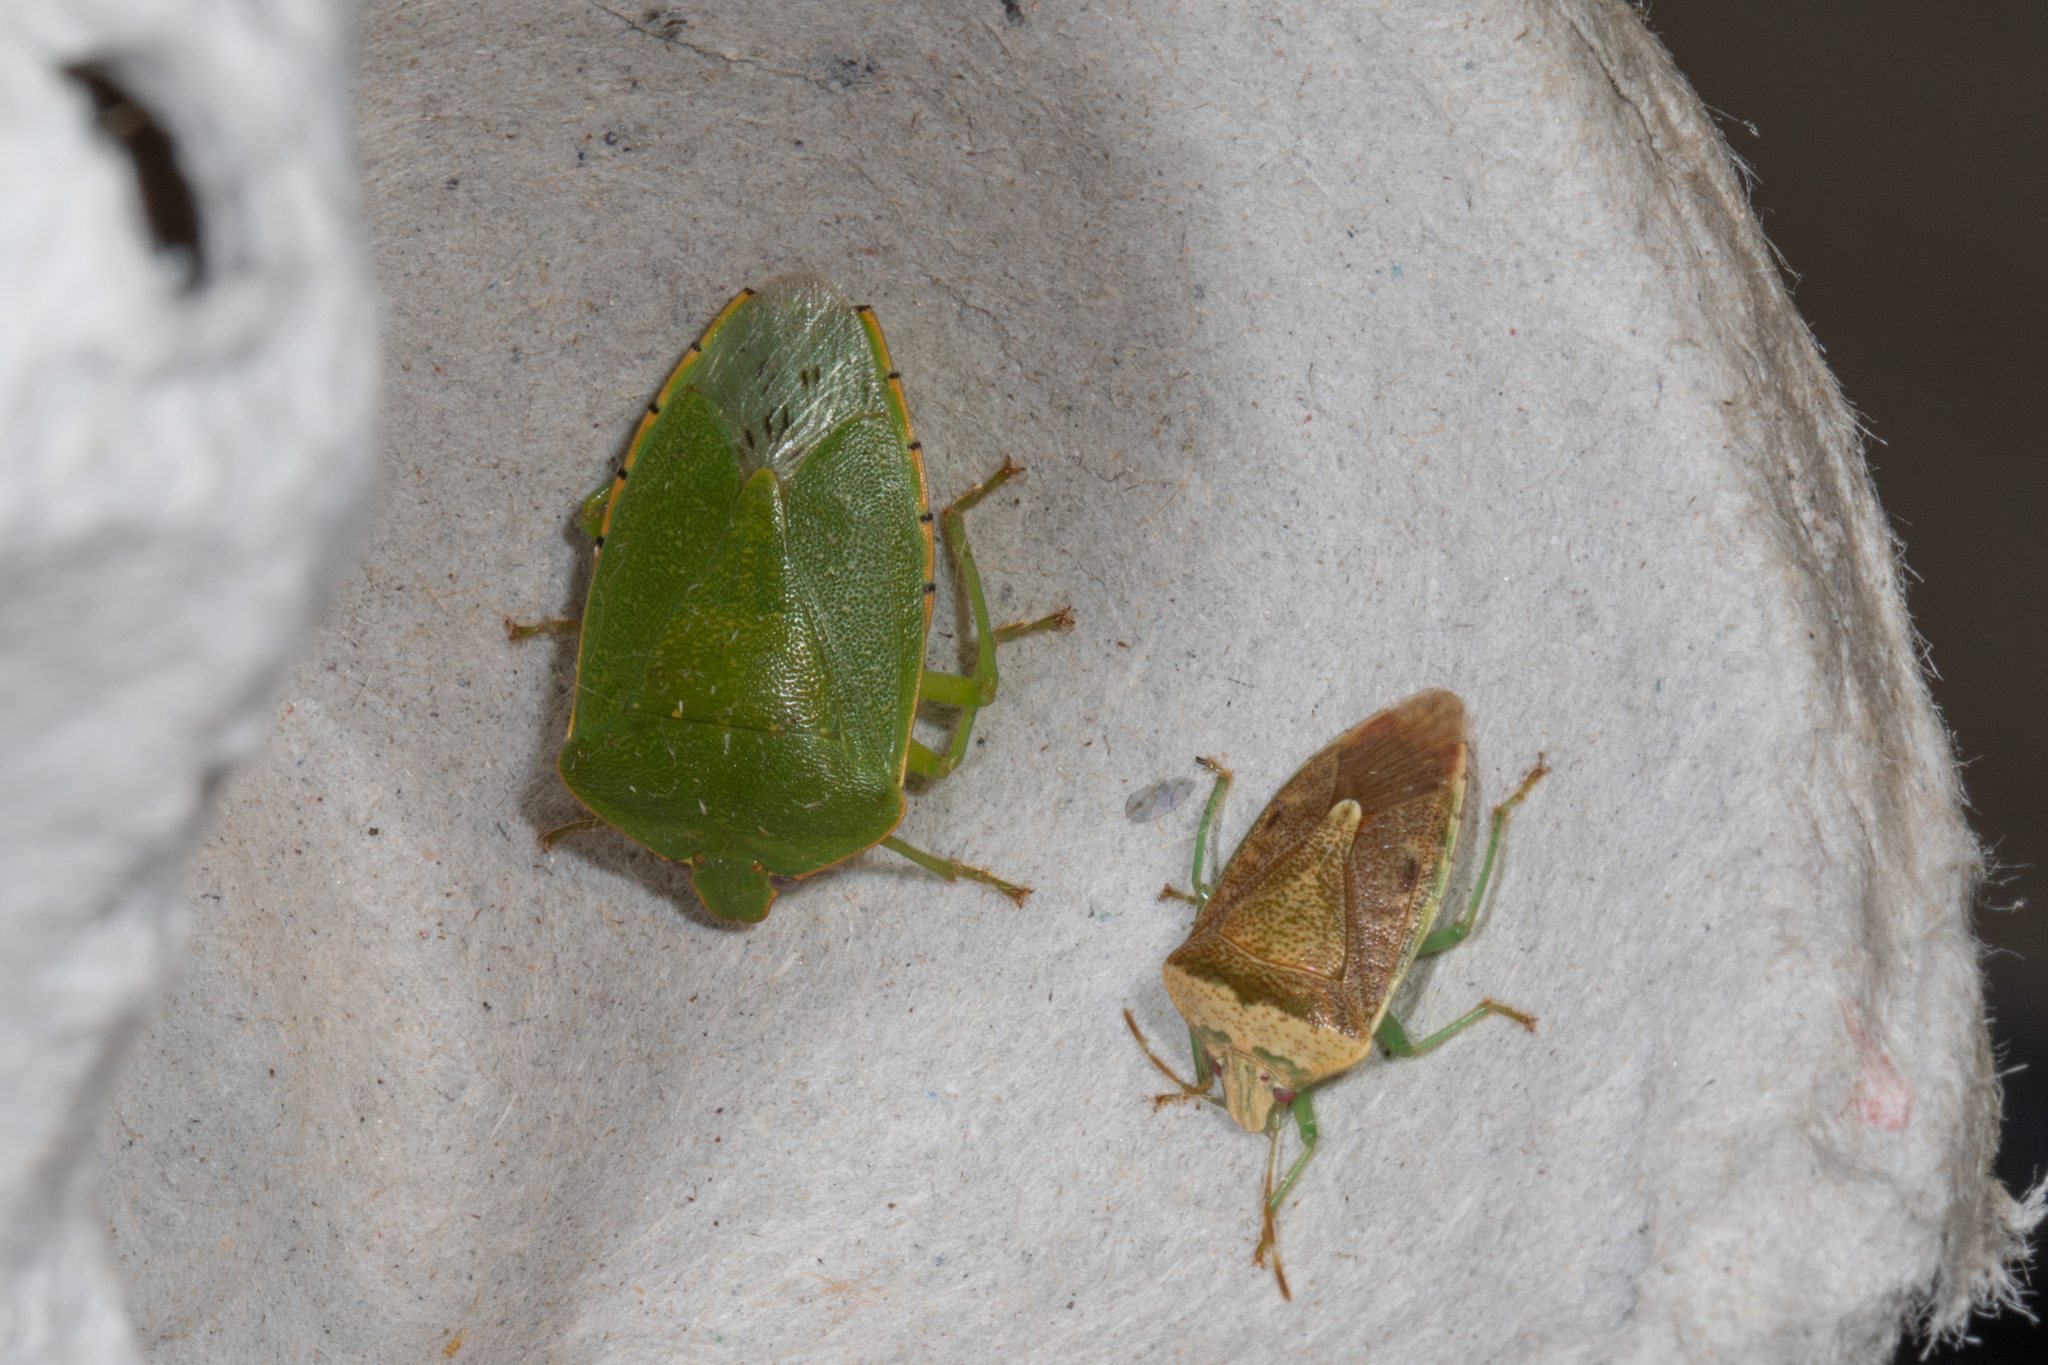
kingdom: Animalia
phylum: Arthropoda
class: Insecta
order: Hemiptera
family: Pentatomidae
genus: Chinavia
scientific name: Chinavia hilaris
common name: Green stink bug
